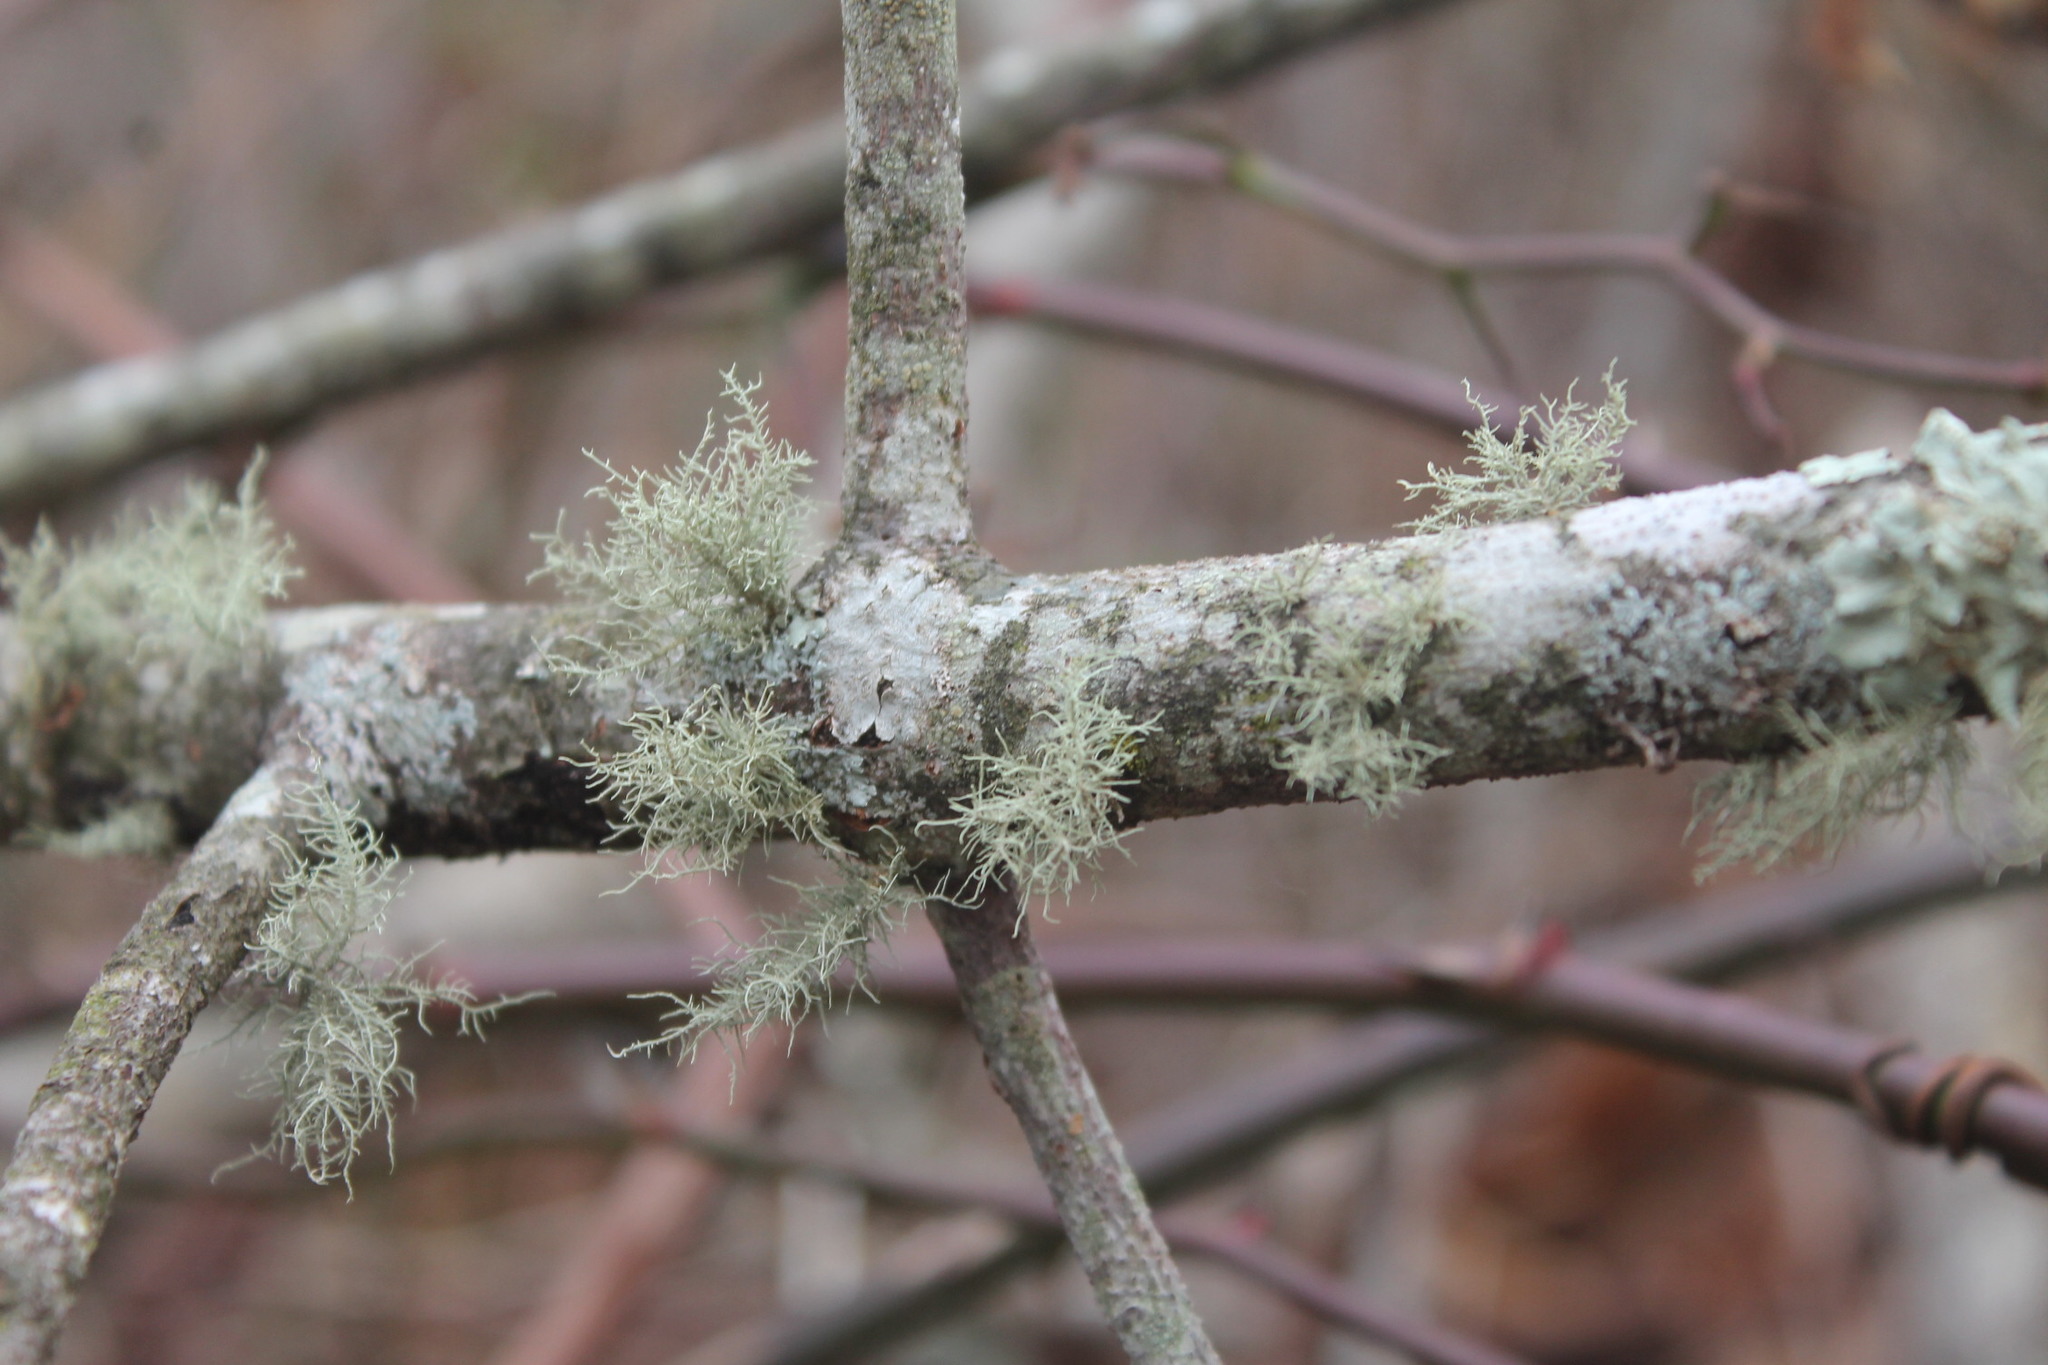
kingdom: Fungi
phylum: Ascomycota
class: Lecanoromycetes
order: Lecanorales
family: Parmeliaceae
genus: Usnea
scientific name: Usnea hirta
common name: Bristly beard lichen
